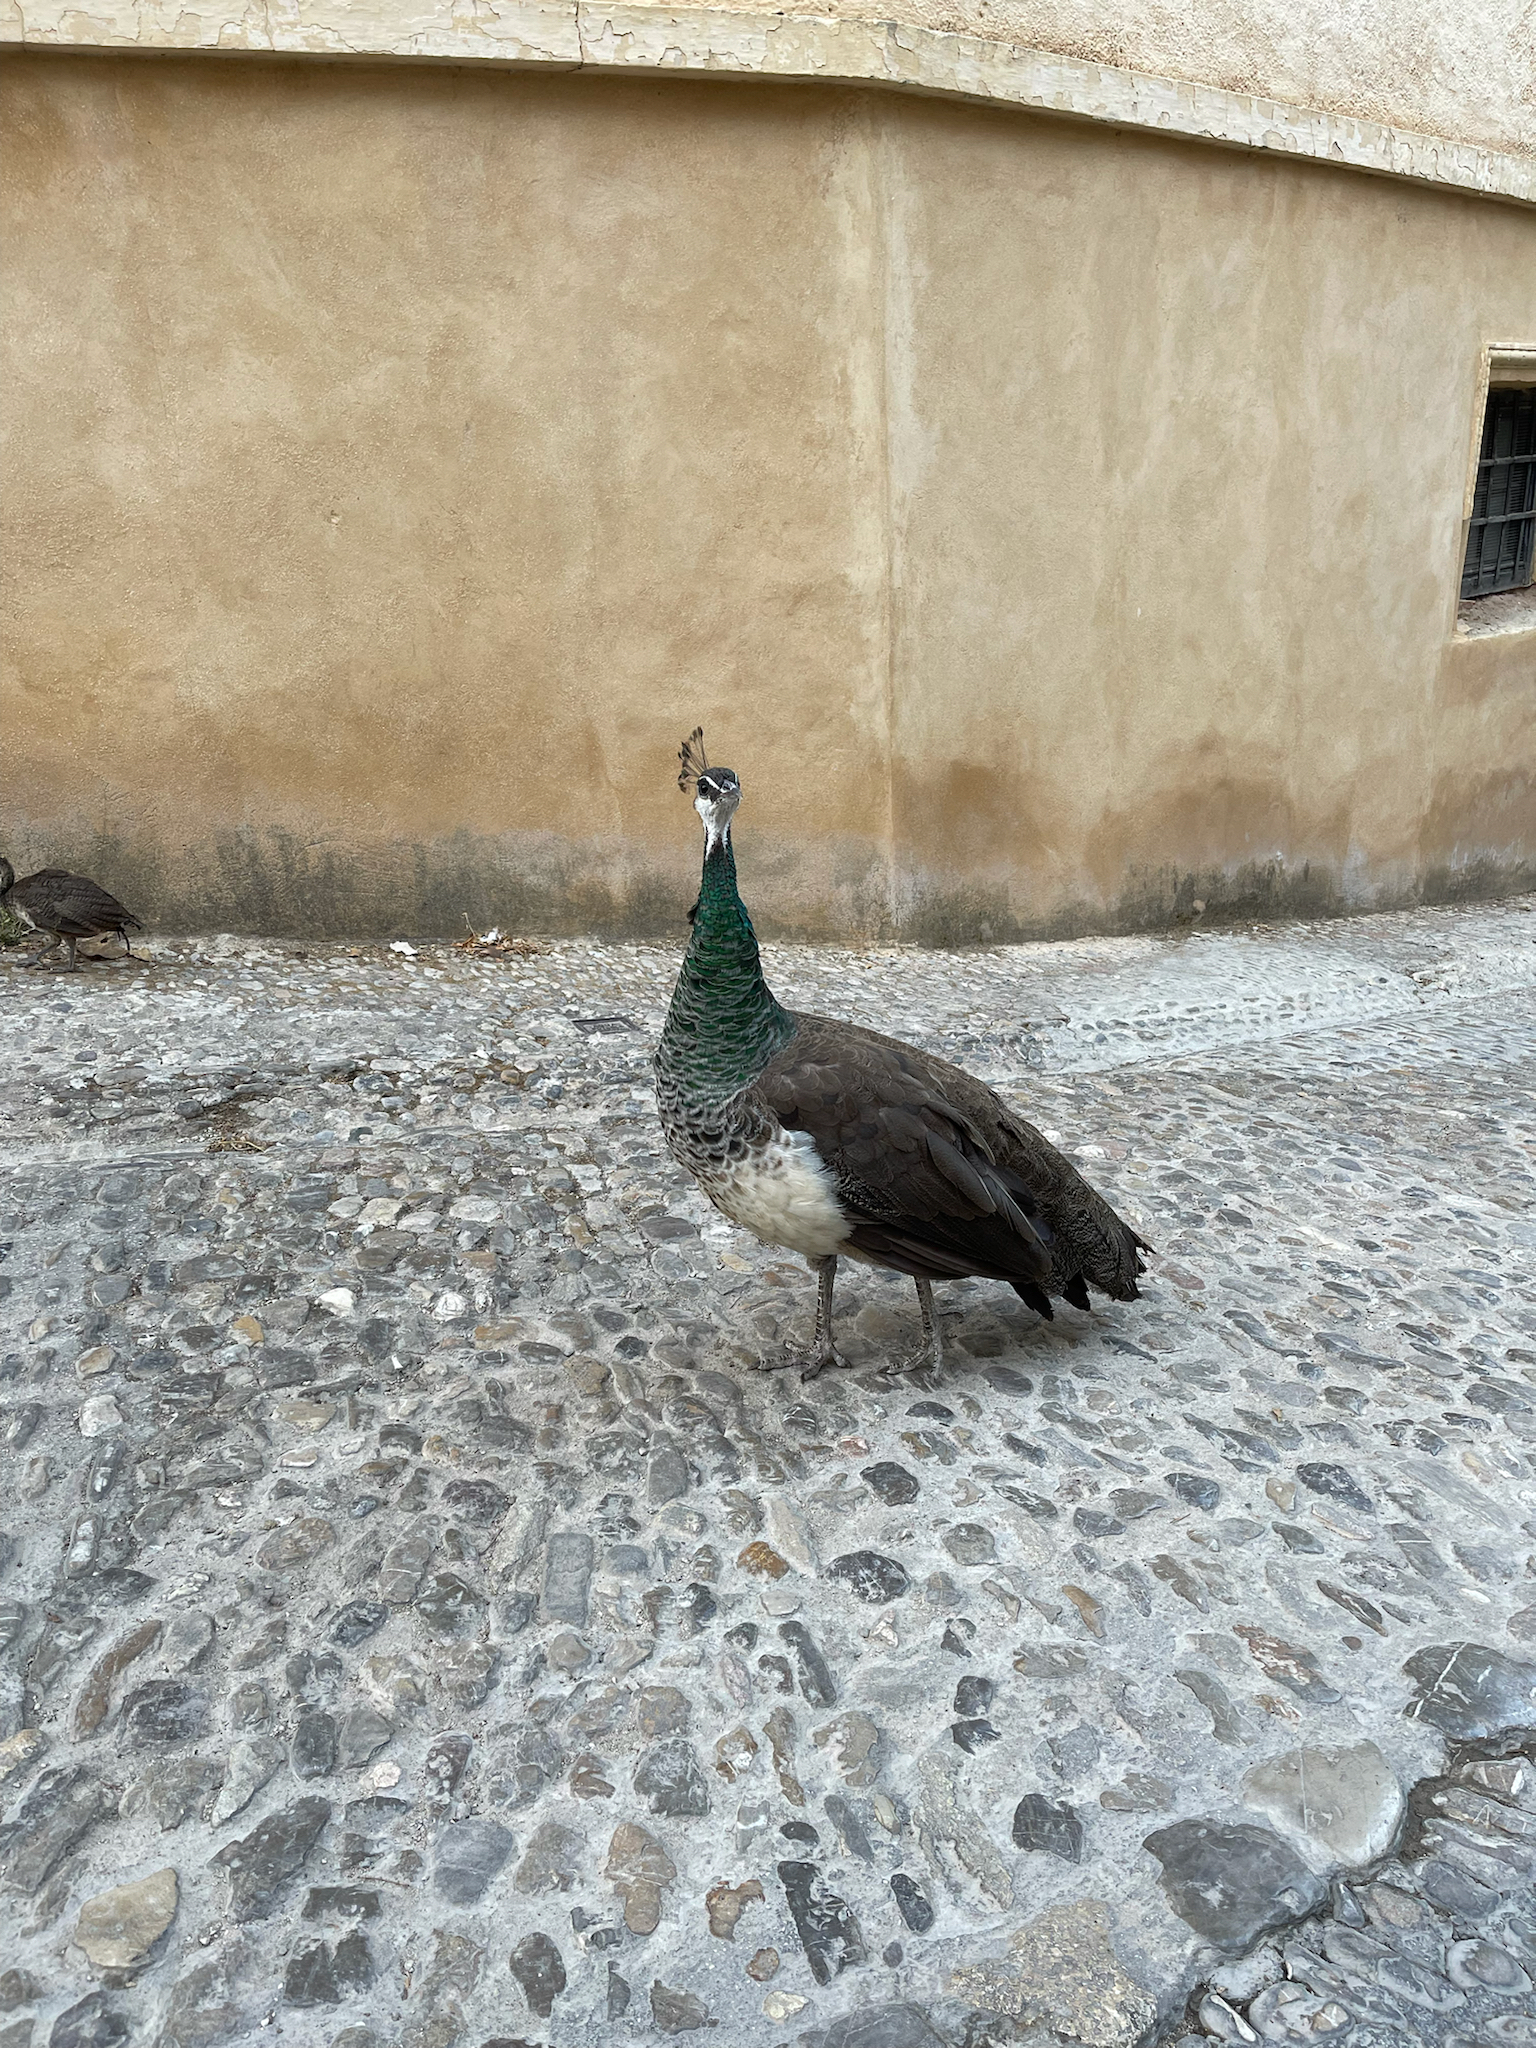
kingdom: Animalia
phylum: Chordata
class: Aves
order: Galliformes
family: Phasianidae
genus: Pavo
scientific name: Pavo cristatus
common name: Indian peafowl
